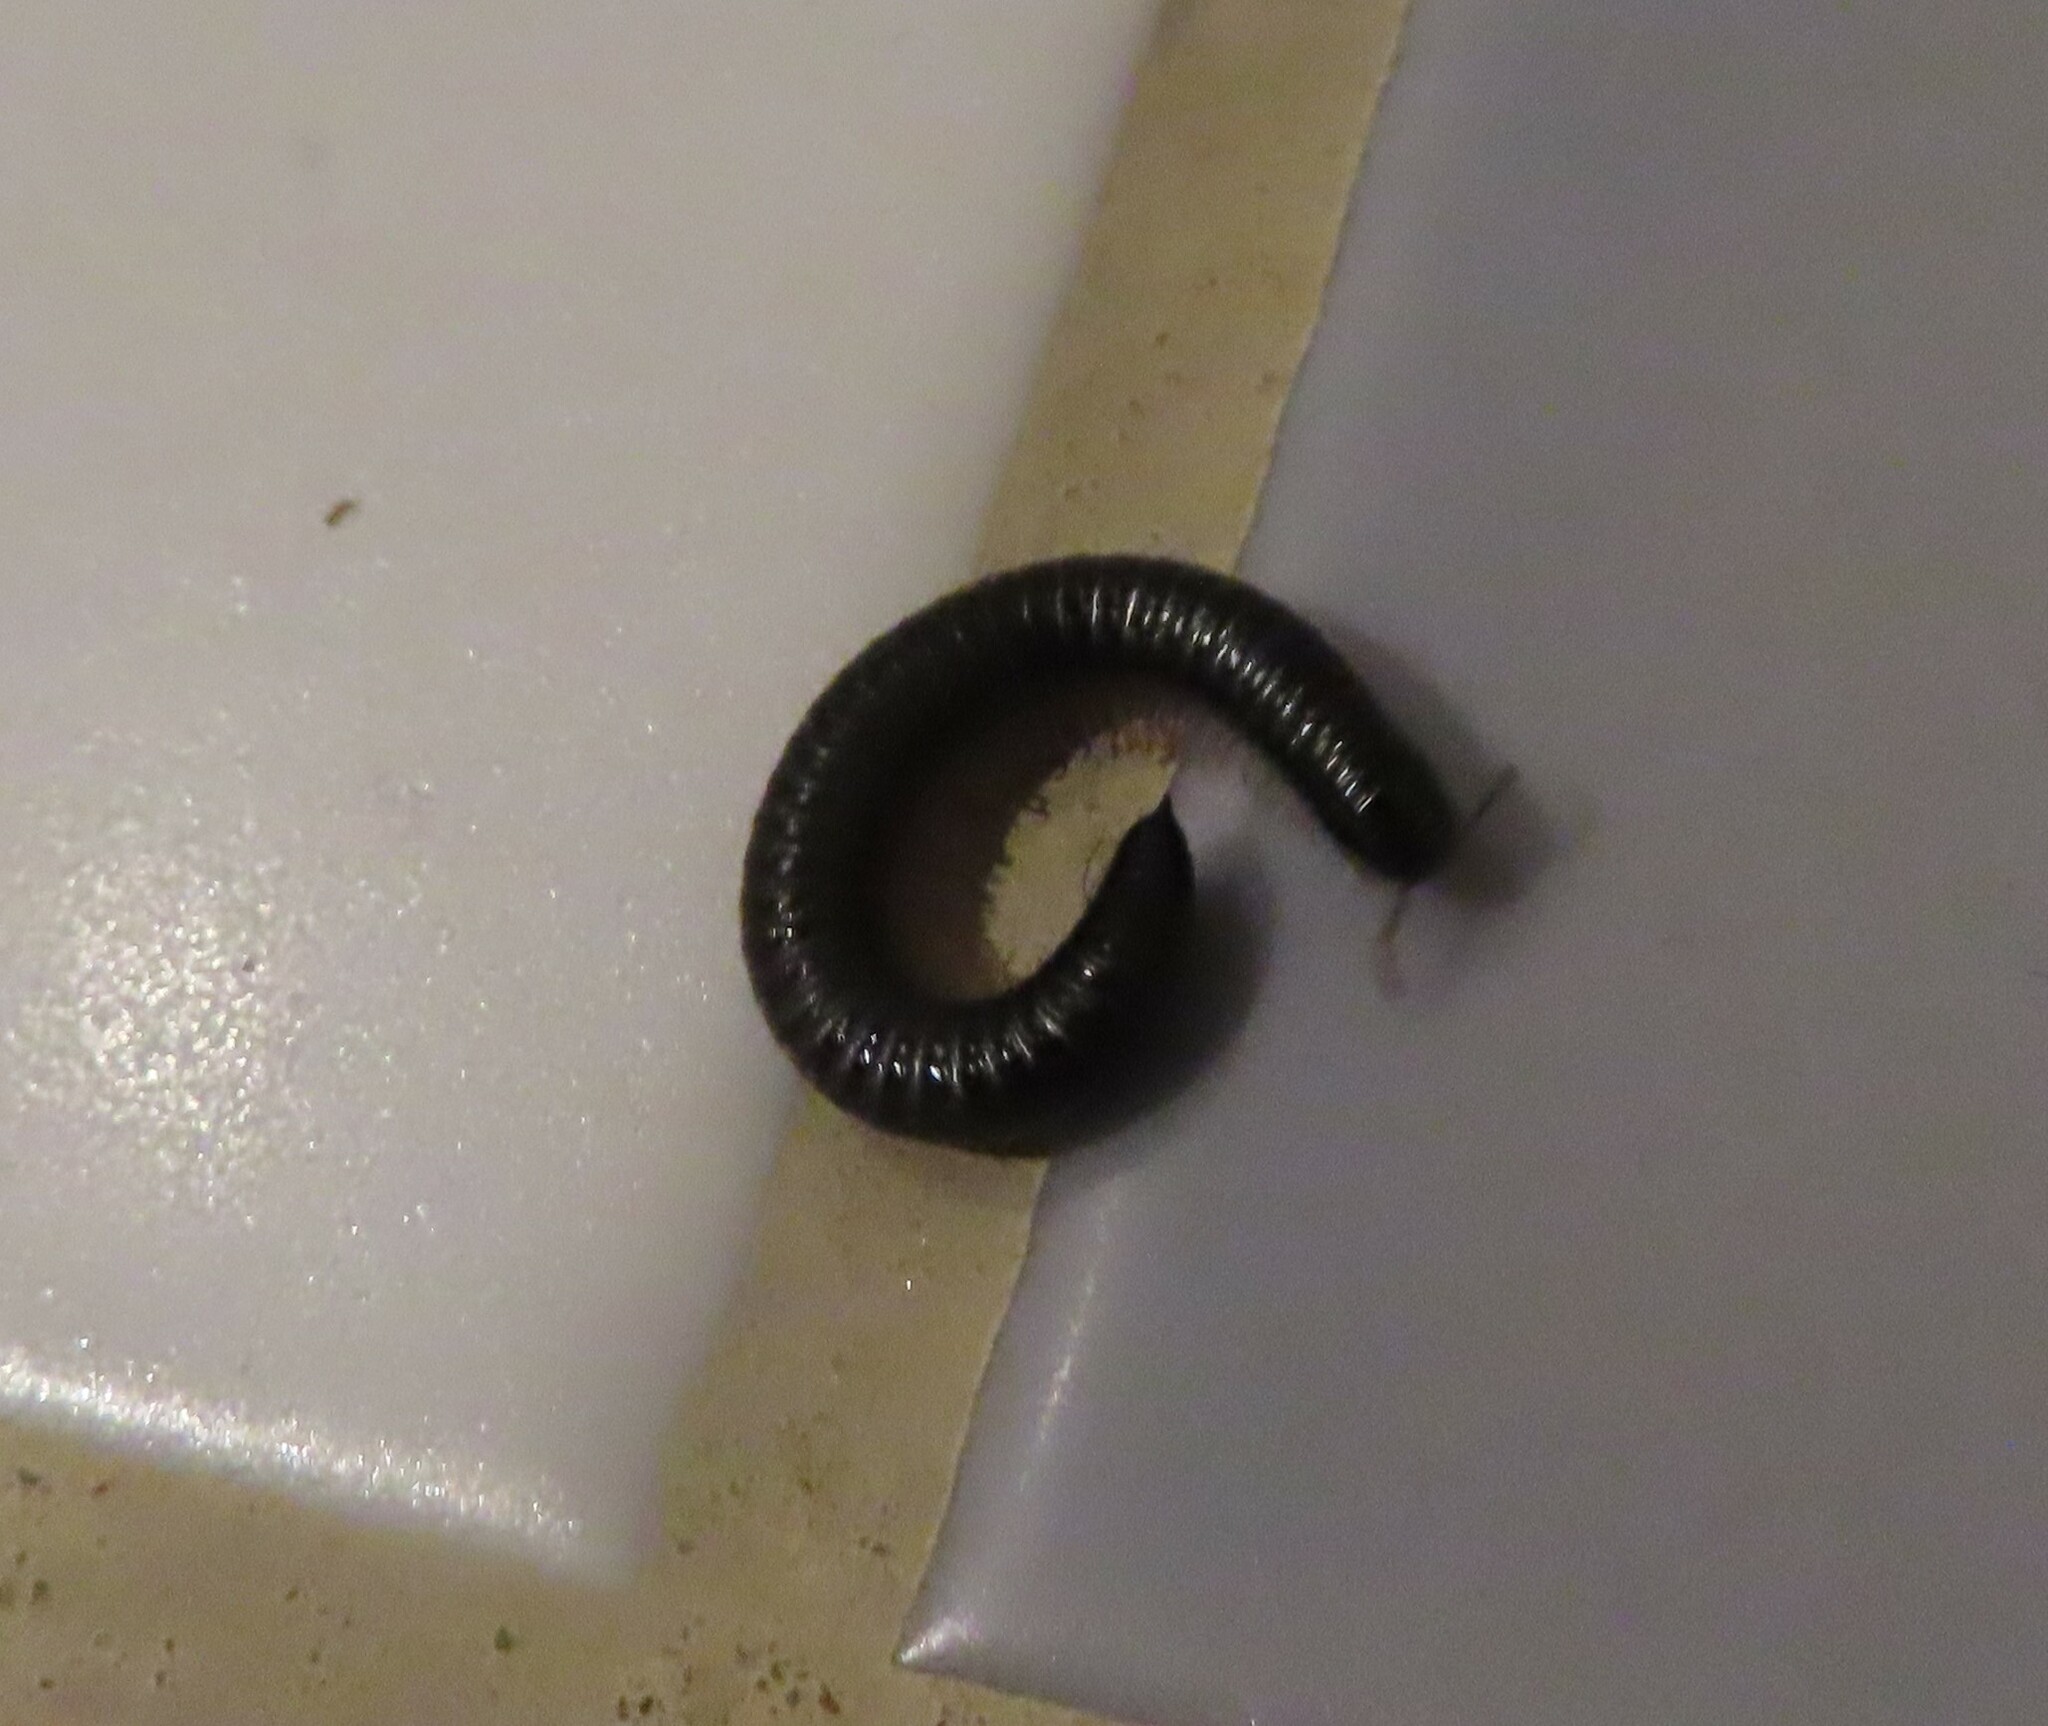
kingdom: Animalia
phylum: Arthropoda
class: Diplopoda
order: Julida
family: Julidae
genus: Ommatoiulus
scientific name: Ommatoiulus moreleti
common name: Portuguese millipede
